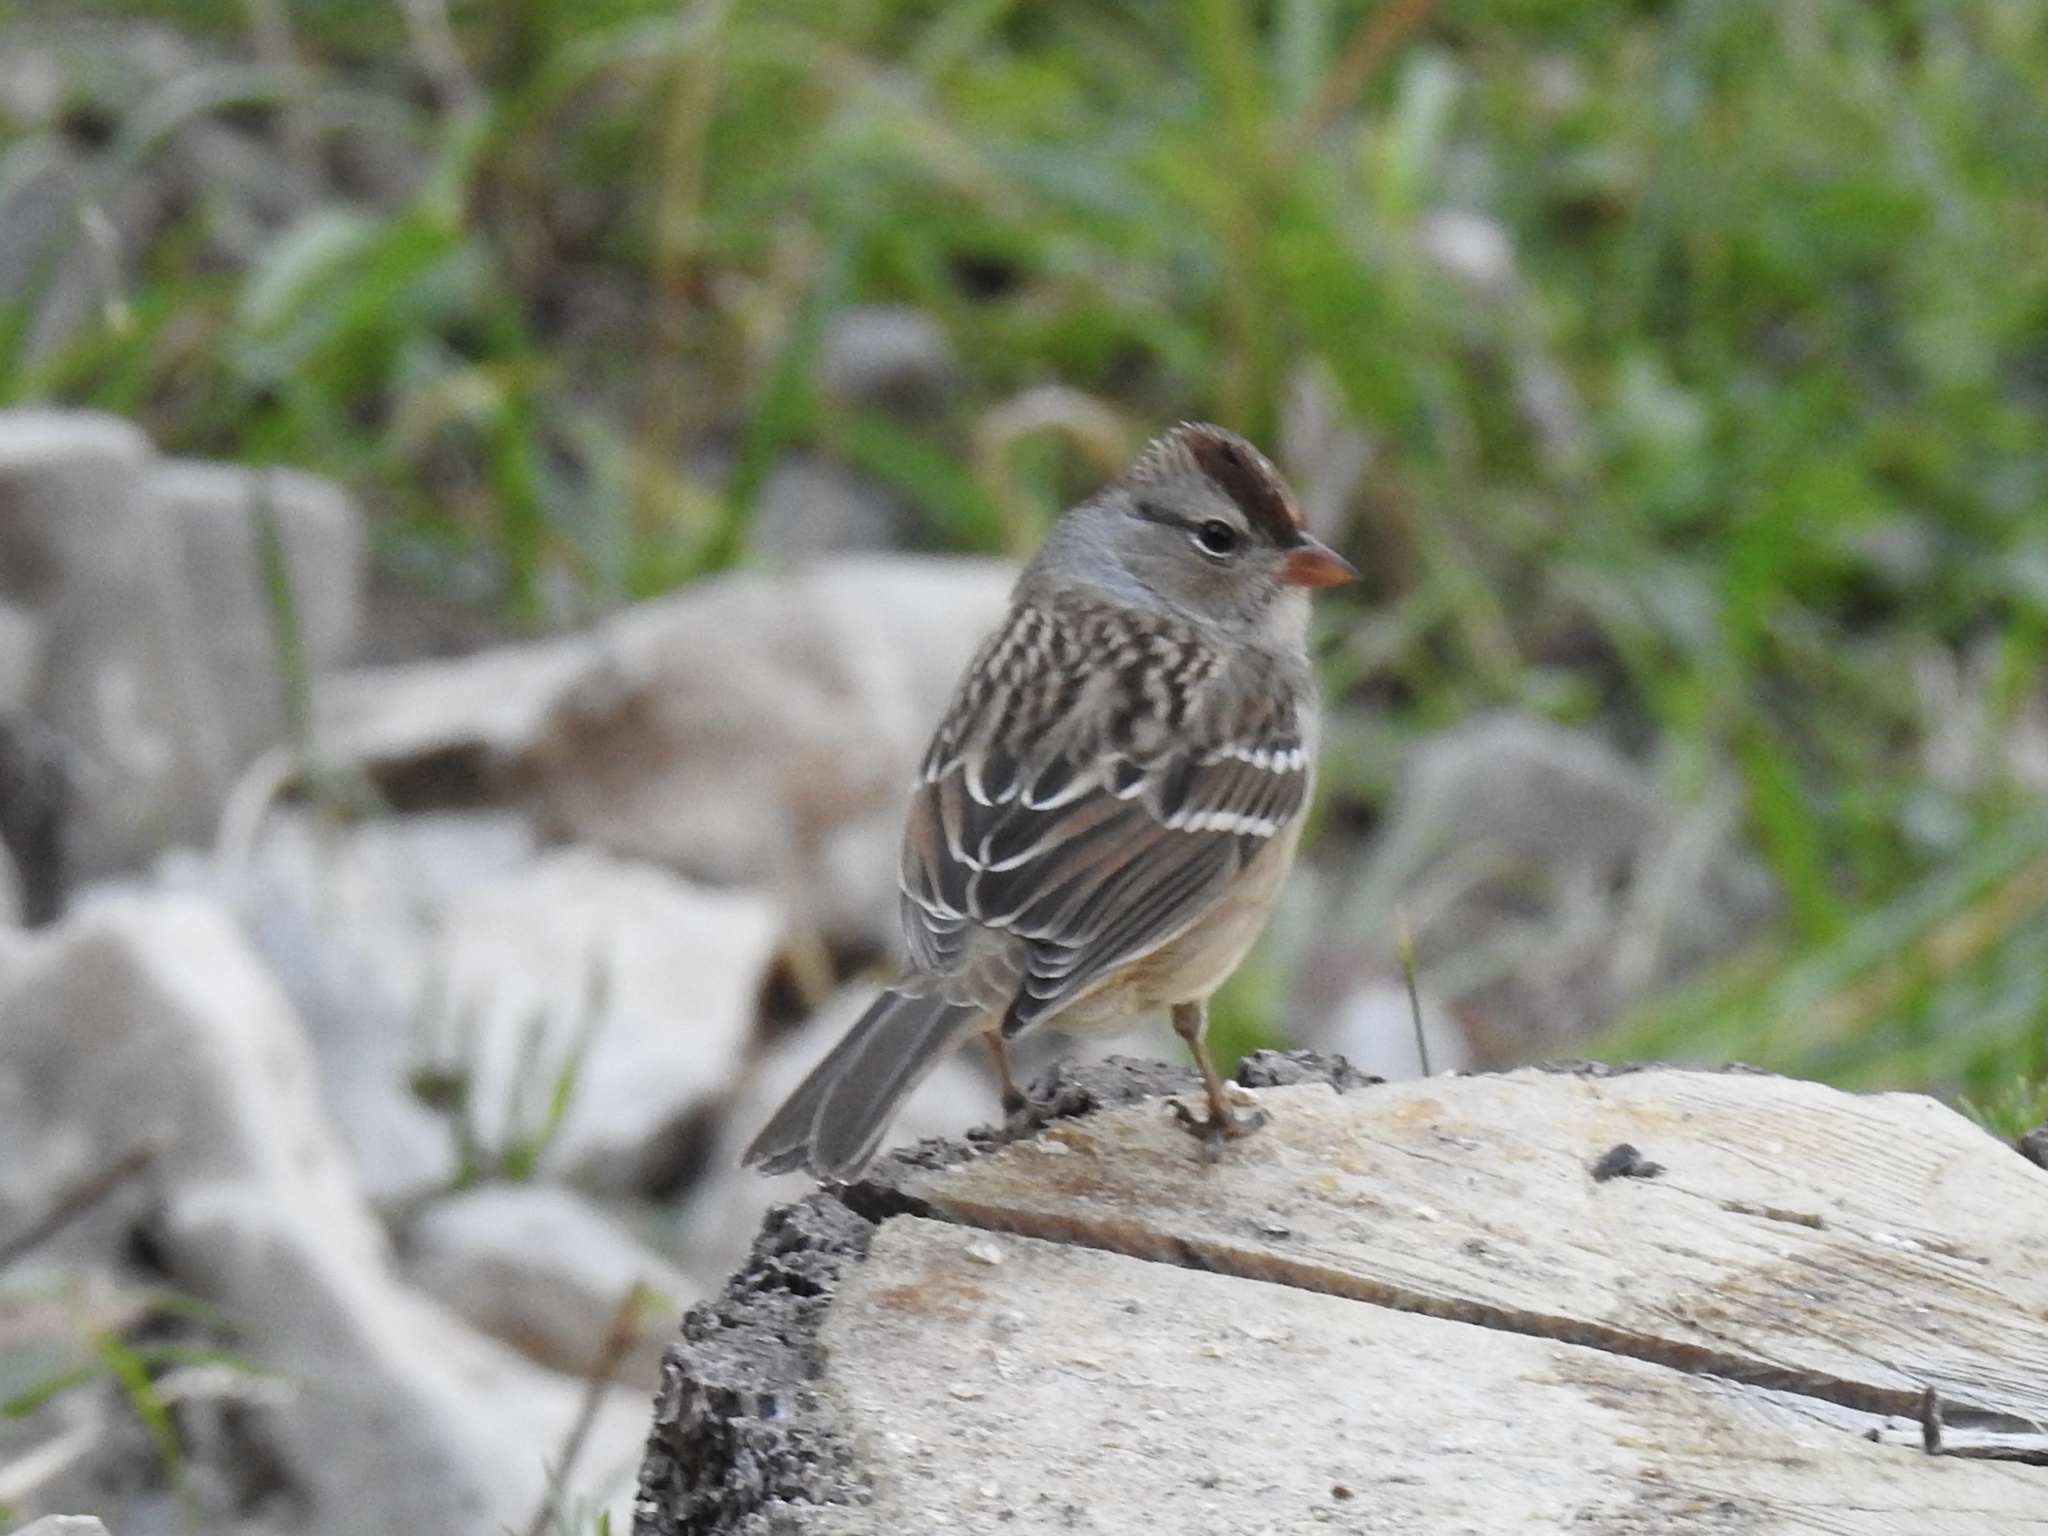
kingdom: Animalia
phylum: Chordata
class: Aves
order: Passeriformes
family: Passerellidae
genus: Zonotrichia
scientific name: Zonotrichia leucophrys
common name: White-crowned sparrow
